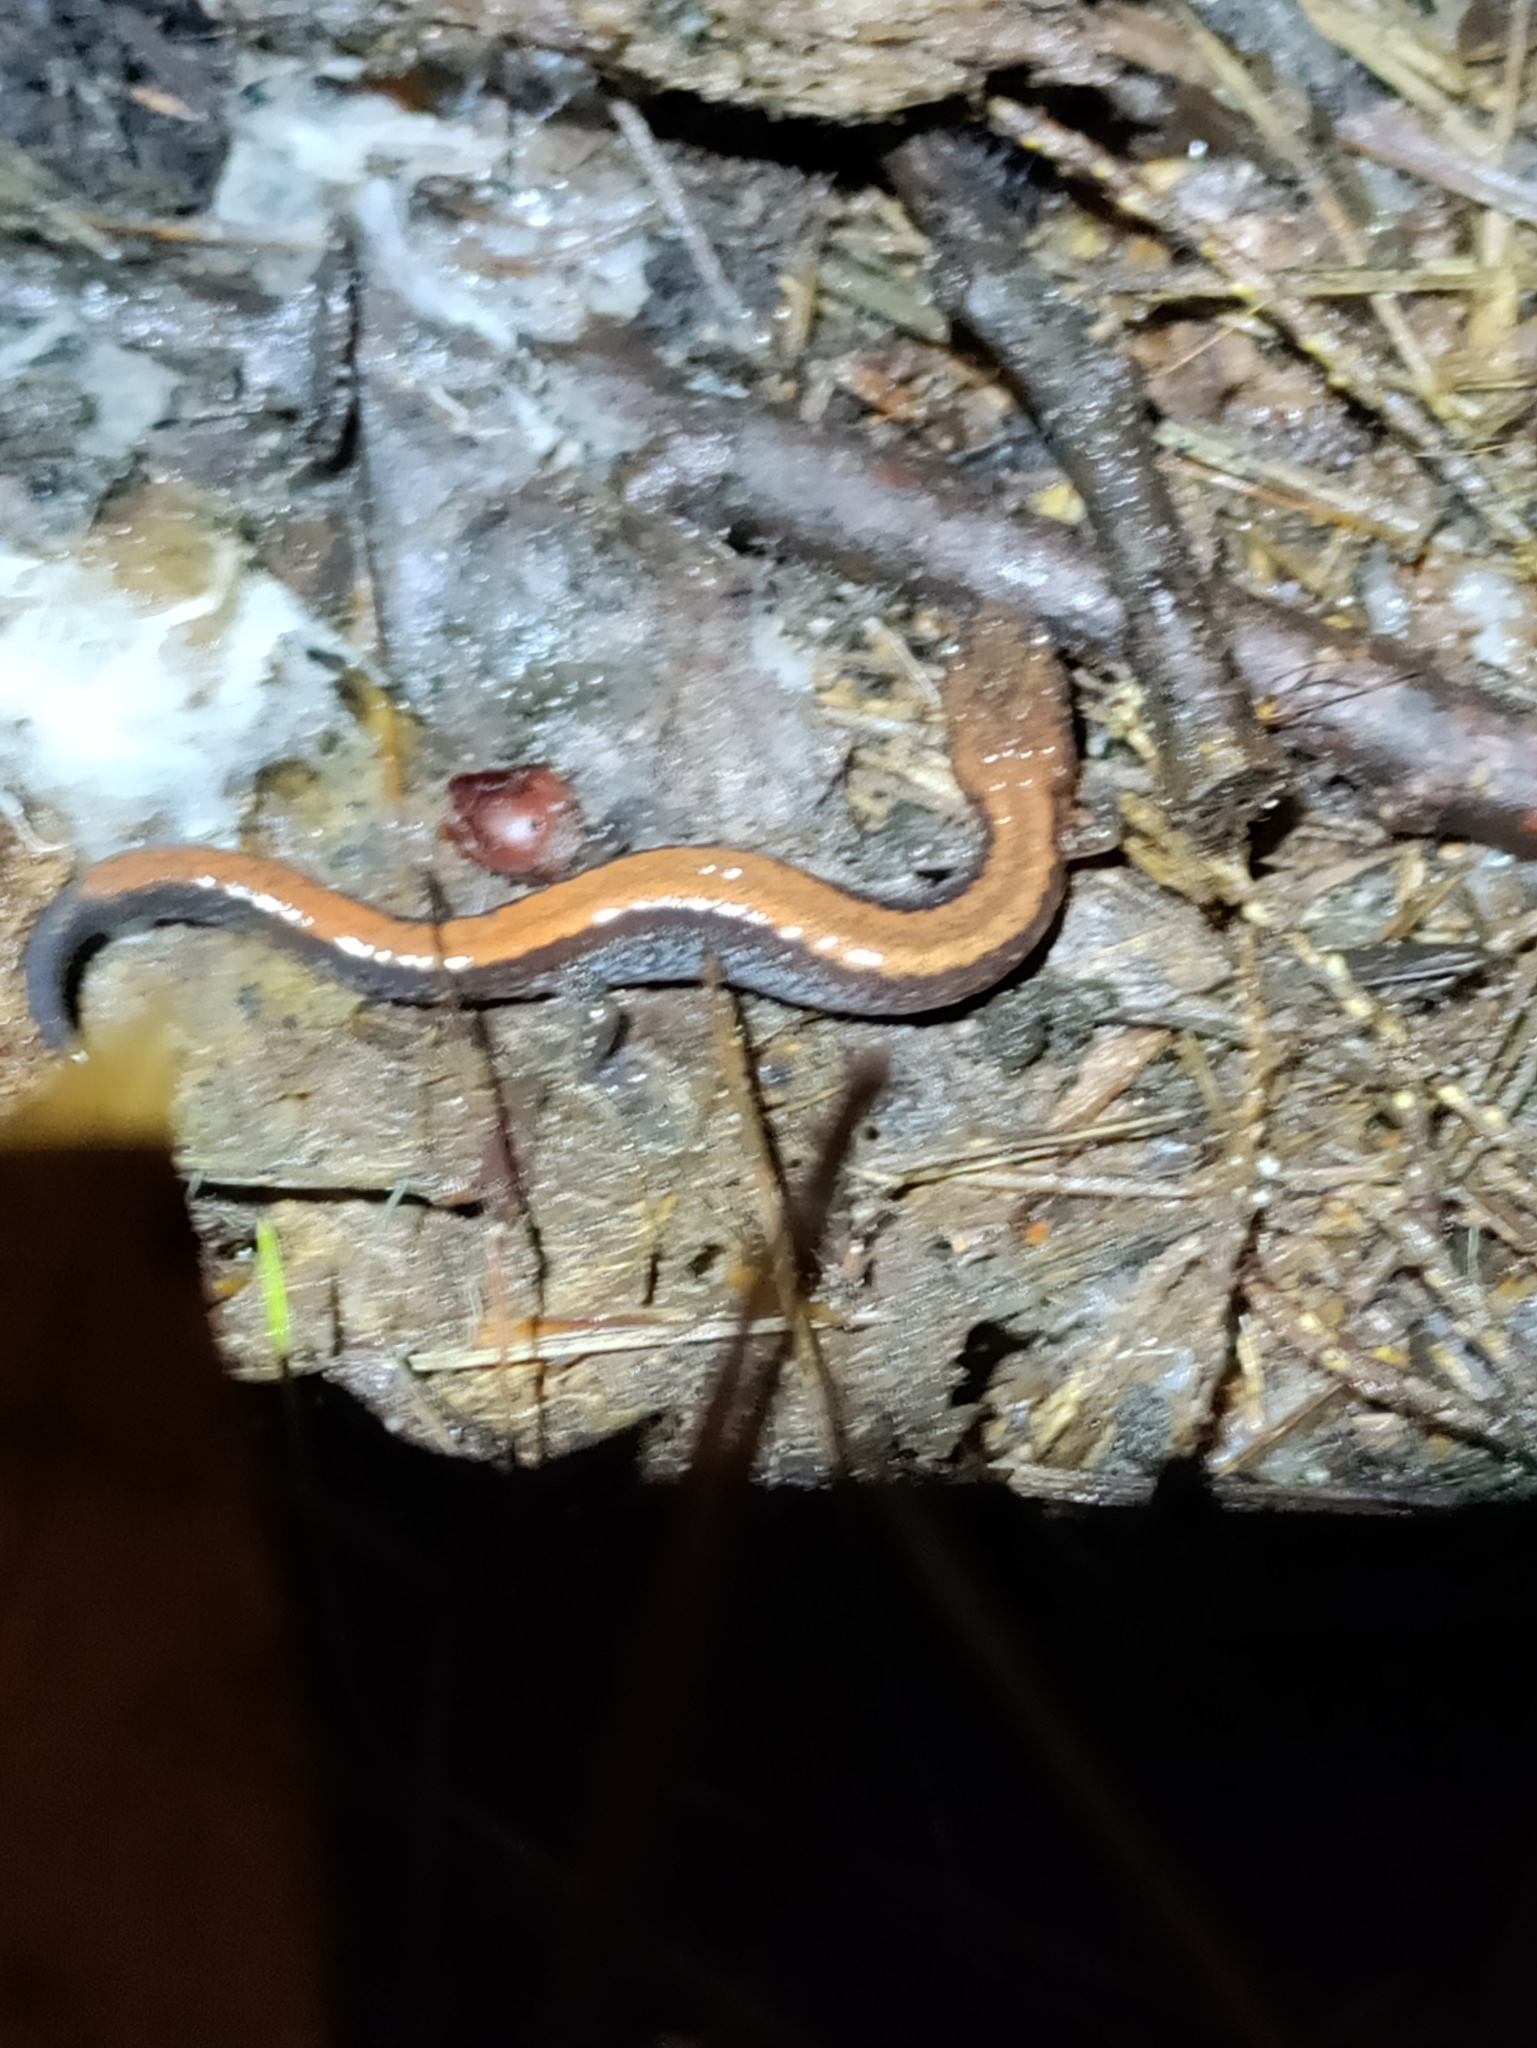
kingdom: Animalia
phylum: Chordata
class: Amphibia
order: Caudata
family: Plethodontidae
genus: Plethodon
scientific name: Plethodon cinereus
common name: Redback salamander
